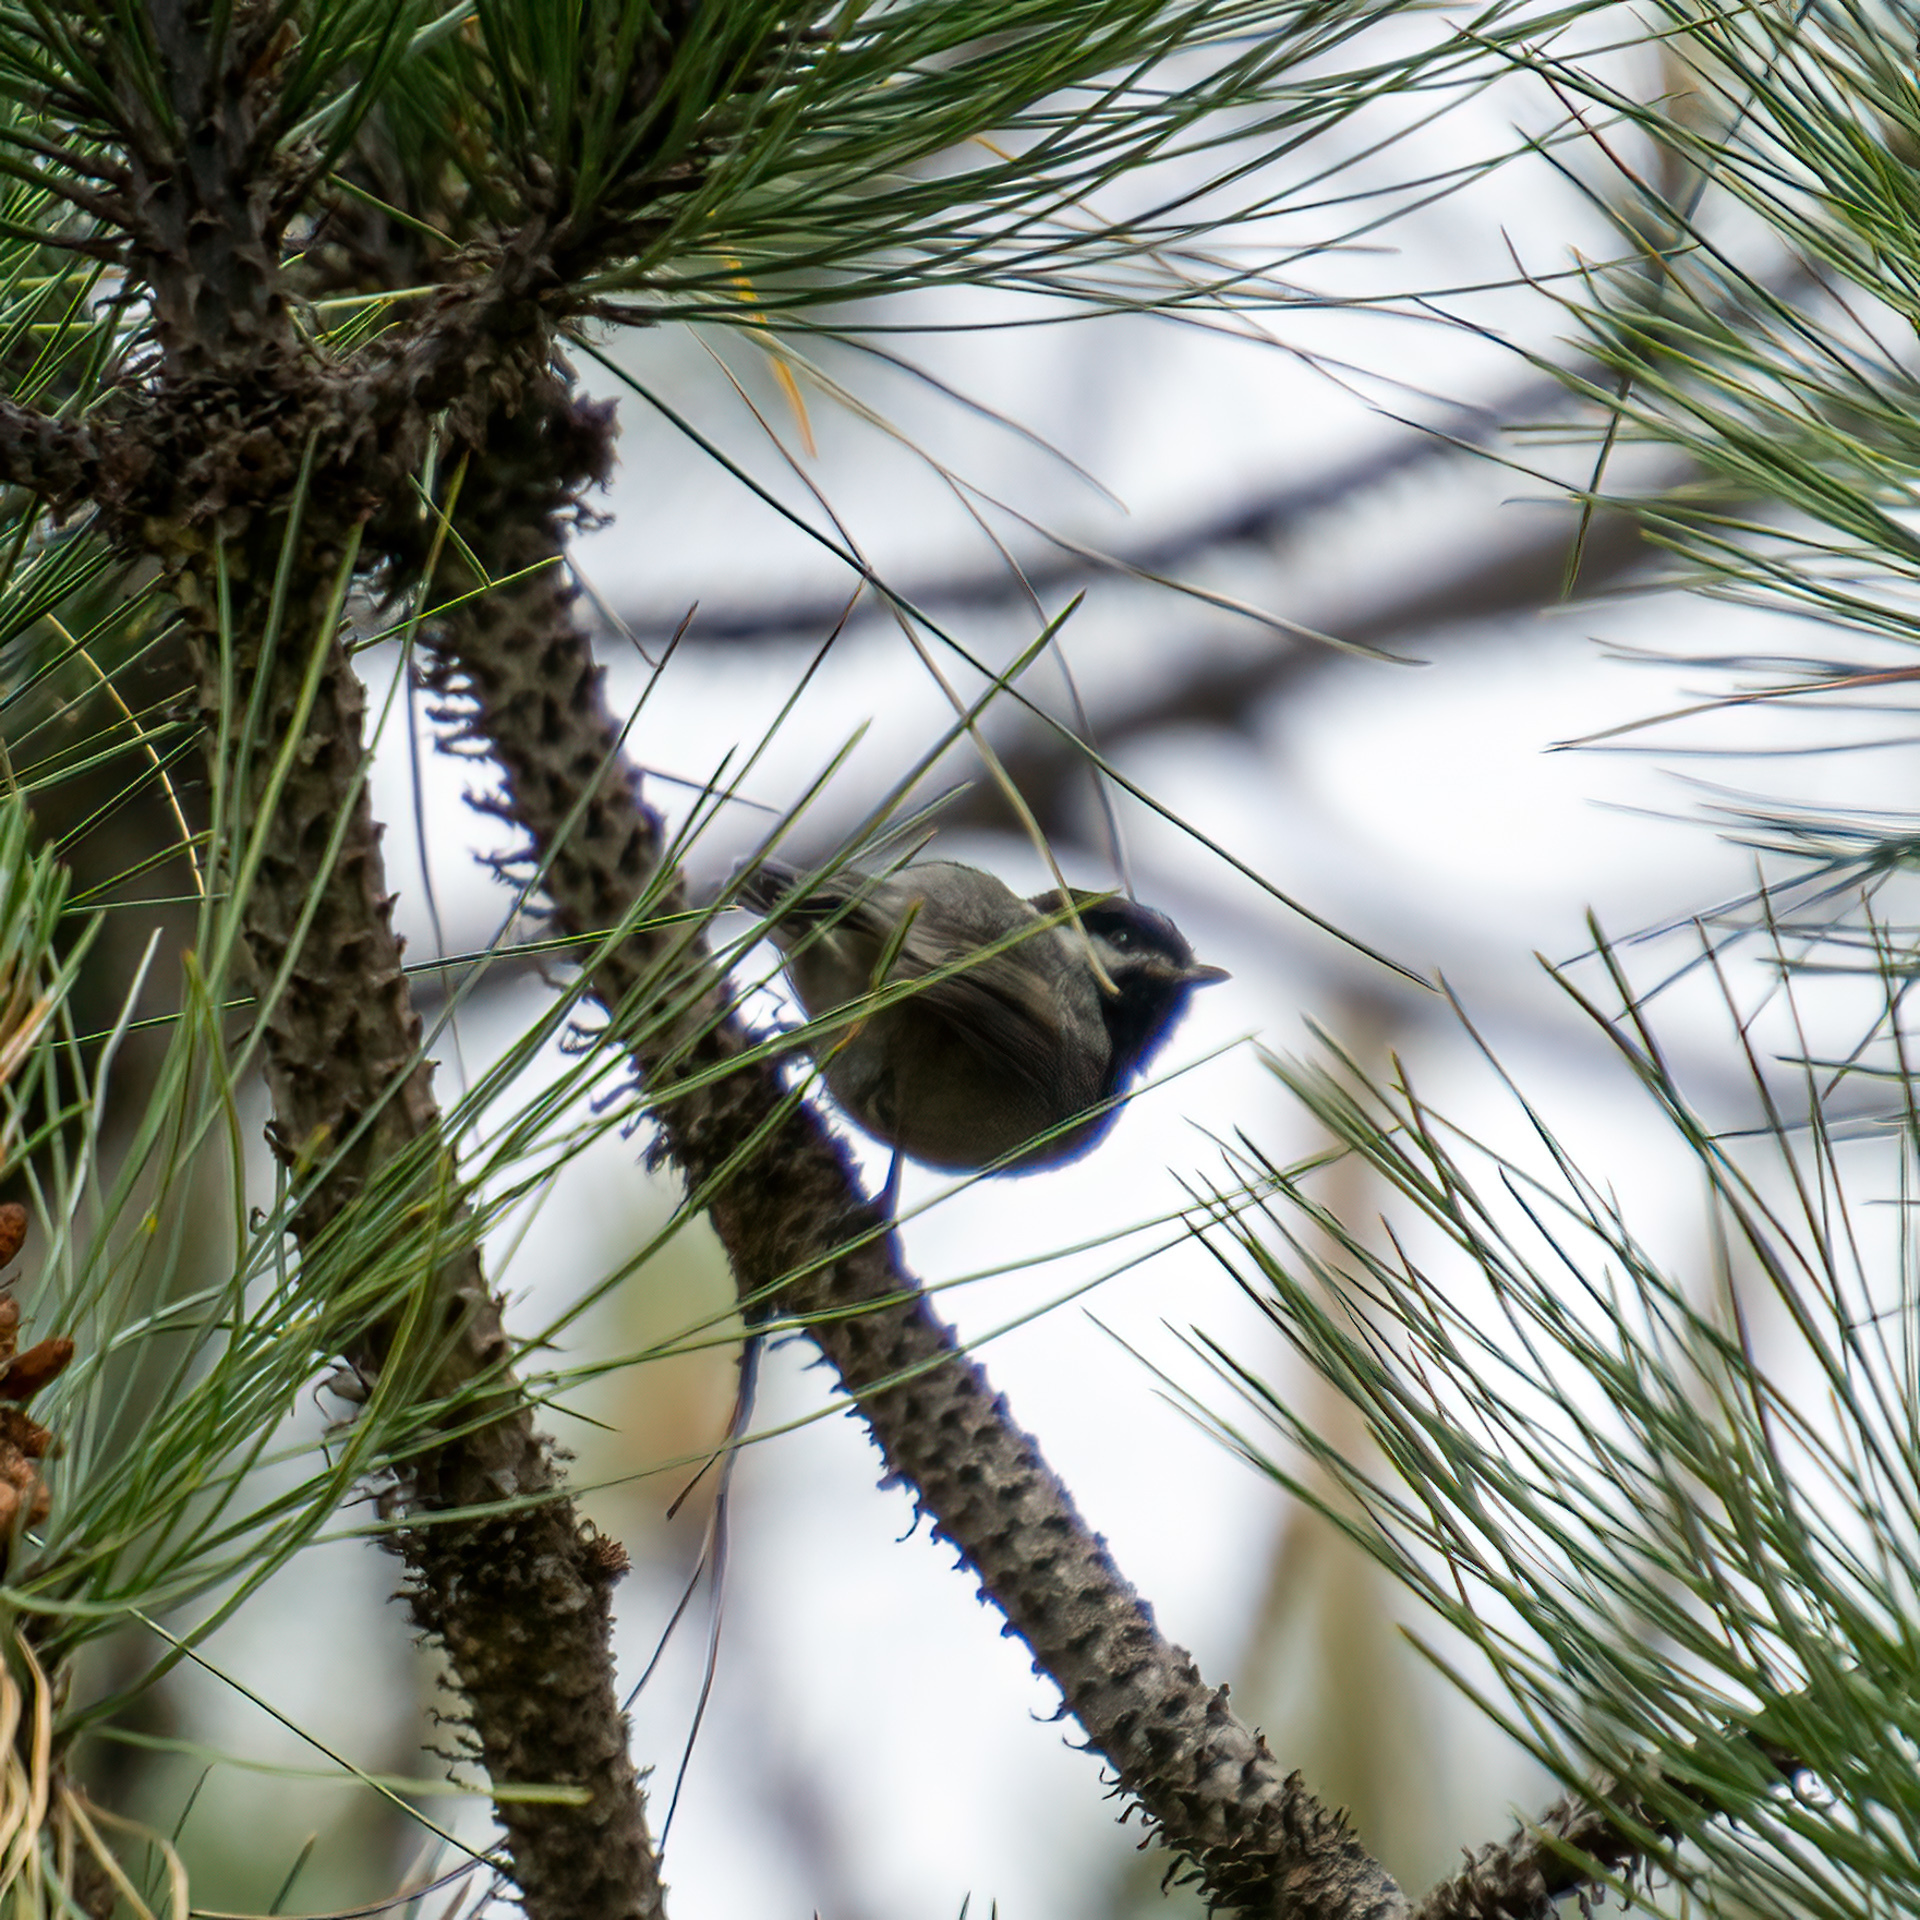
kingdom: Animalia
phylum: Chordata
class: Aves
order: Passeriformes
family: Paridae
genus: Poecile
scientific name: Poecile sclateri
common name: Mexican chickadee
